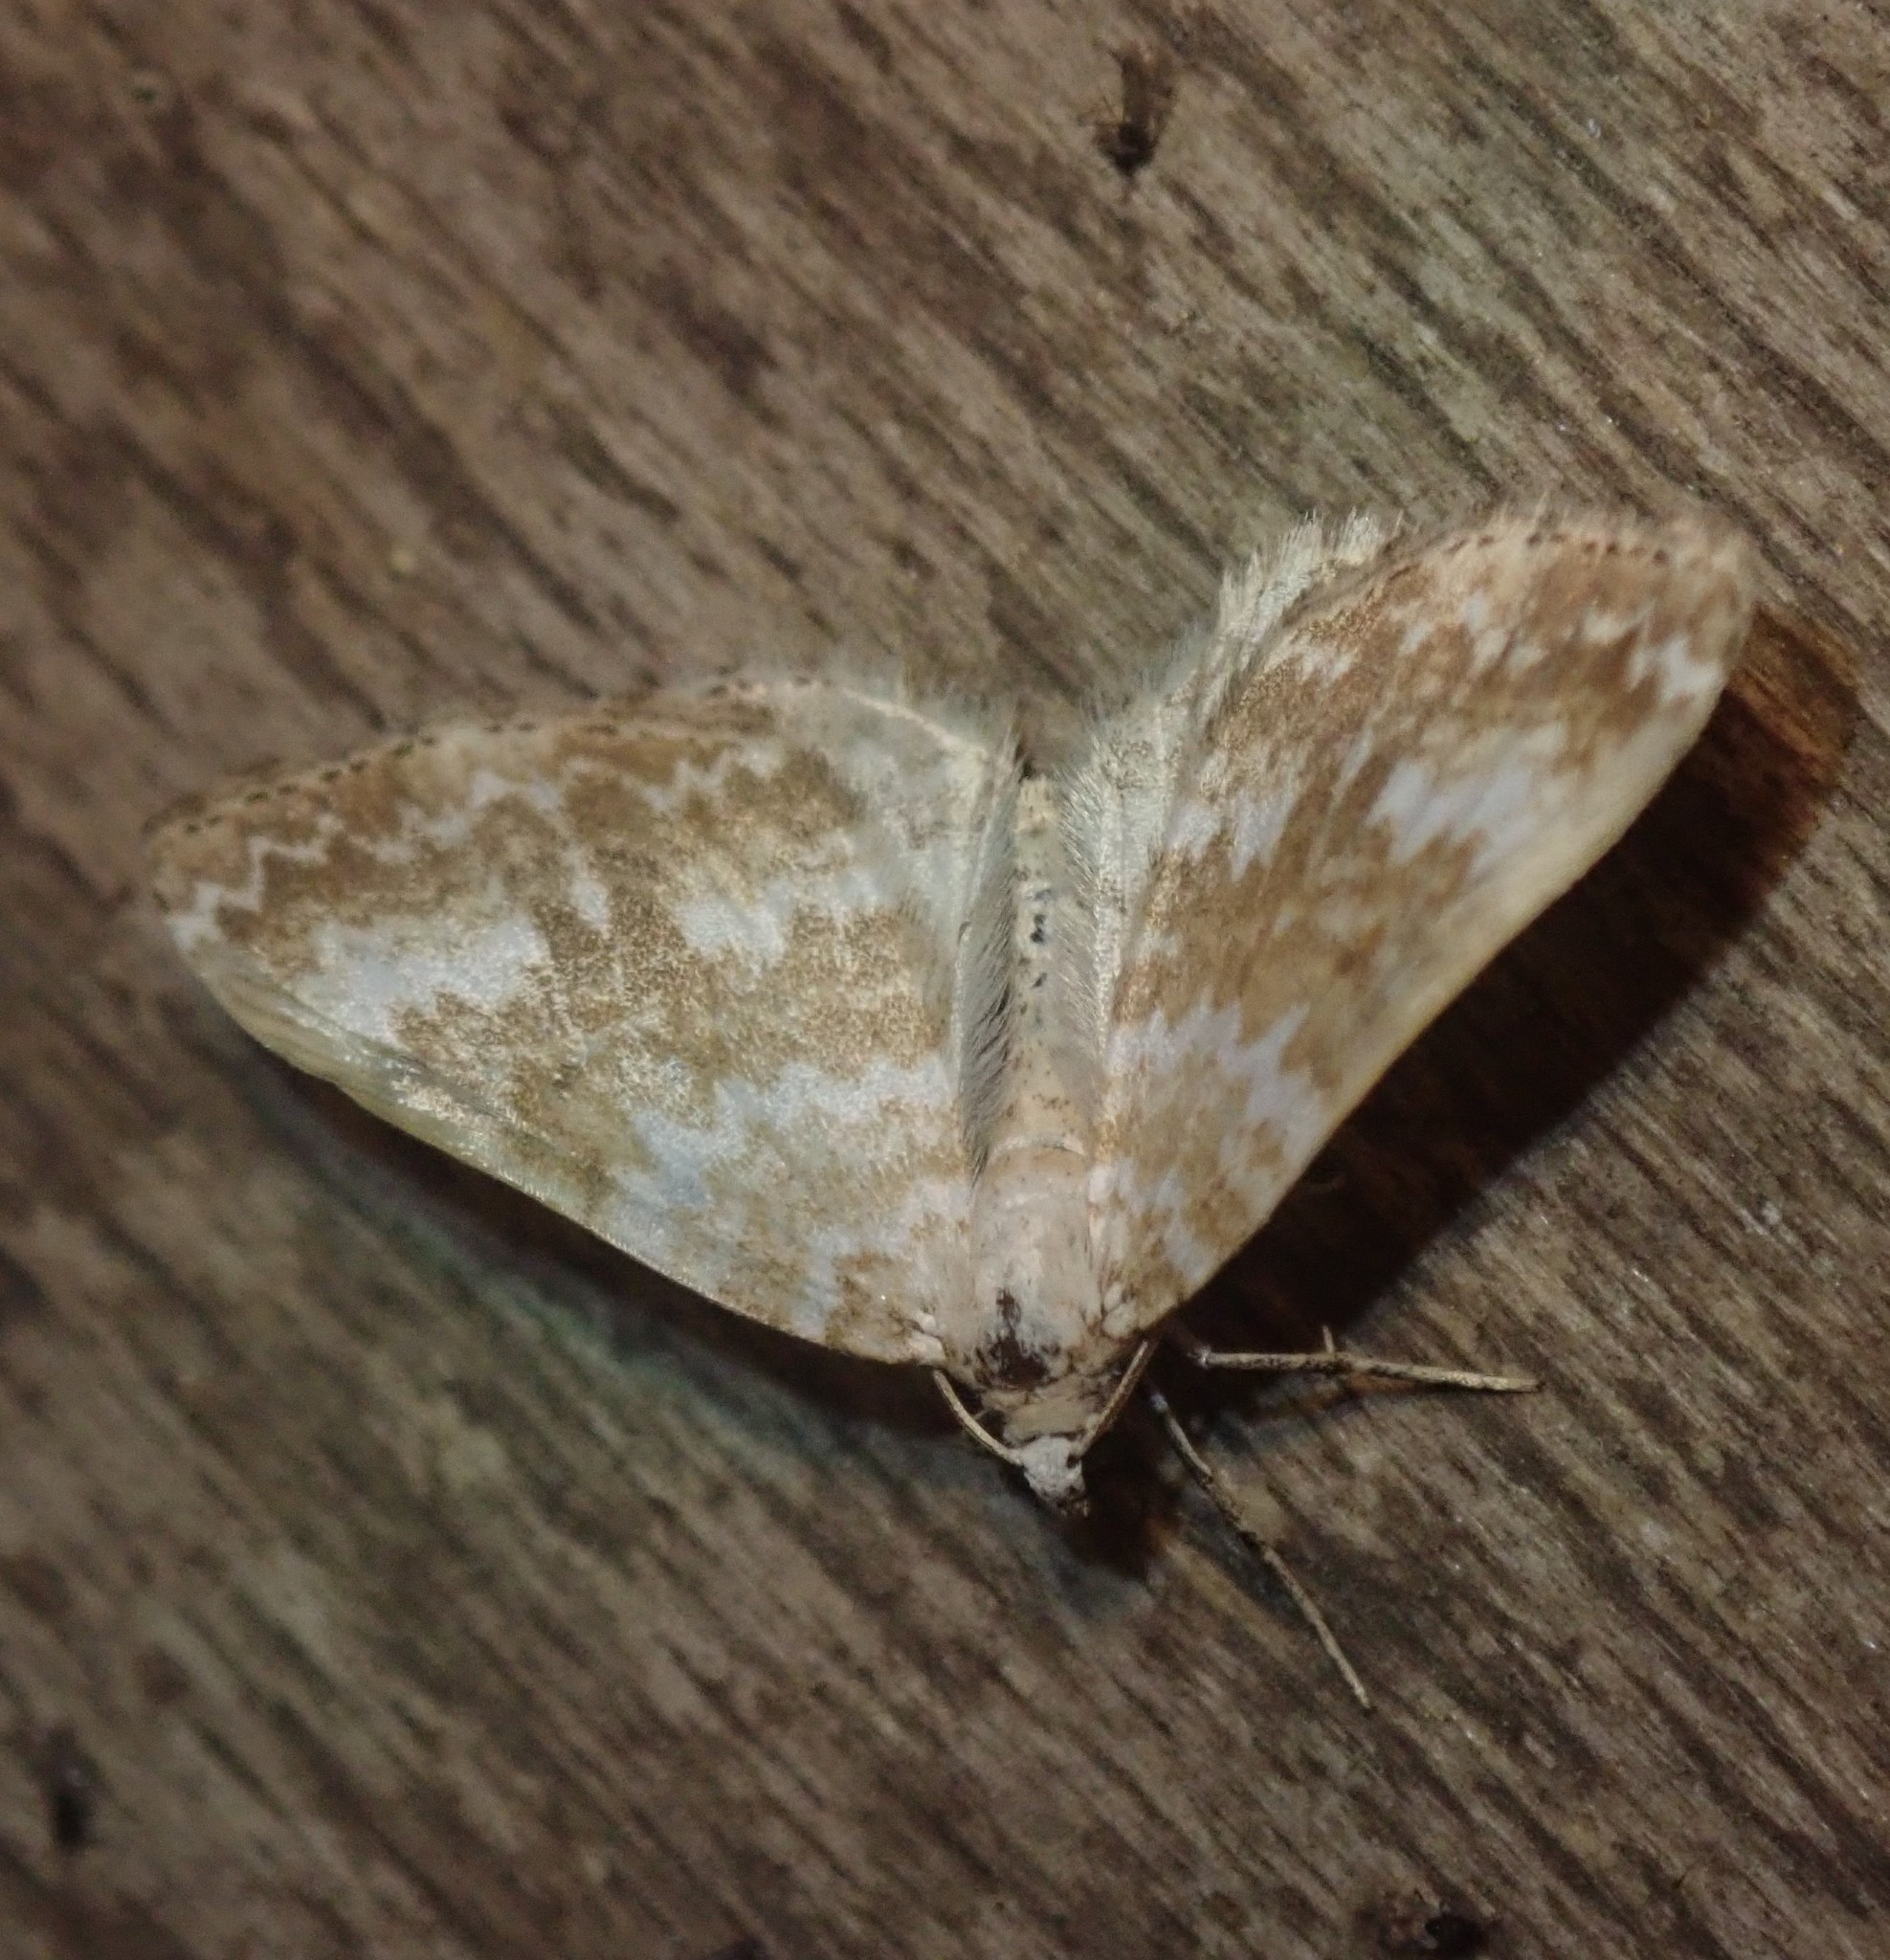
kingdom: Animalia
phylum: Arthropoda
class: Insecta
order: Lepidoptera
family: Geometridae
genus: Perizoma
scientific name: Perizoma flavofasciata
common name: Sandy carpet
